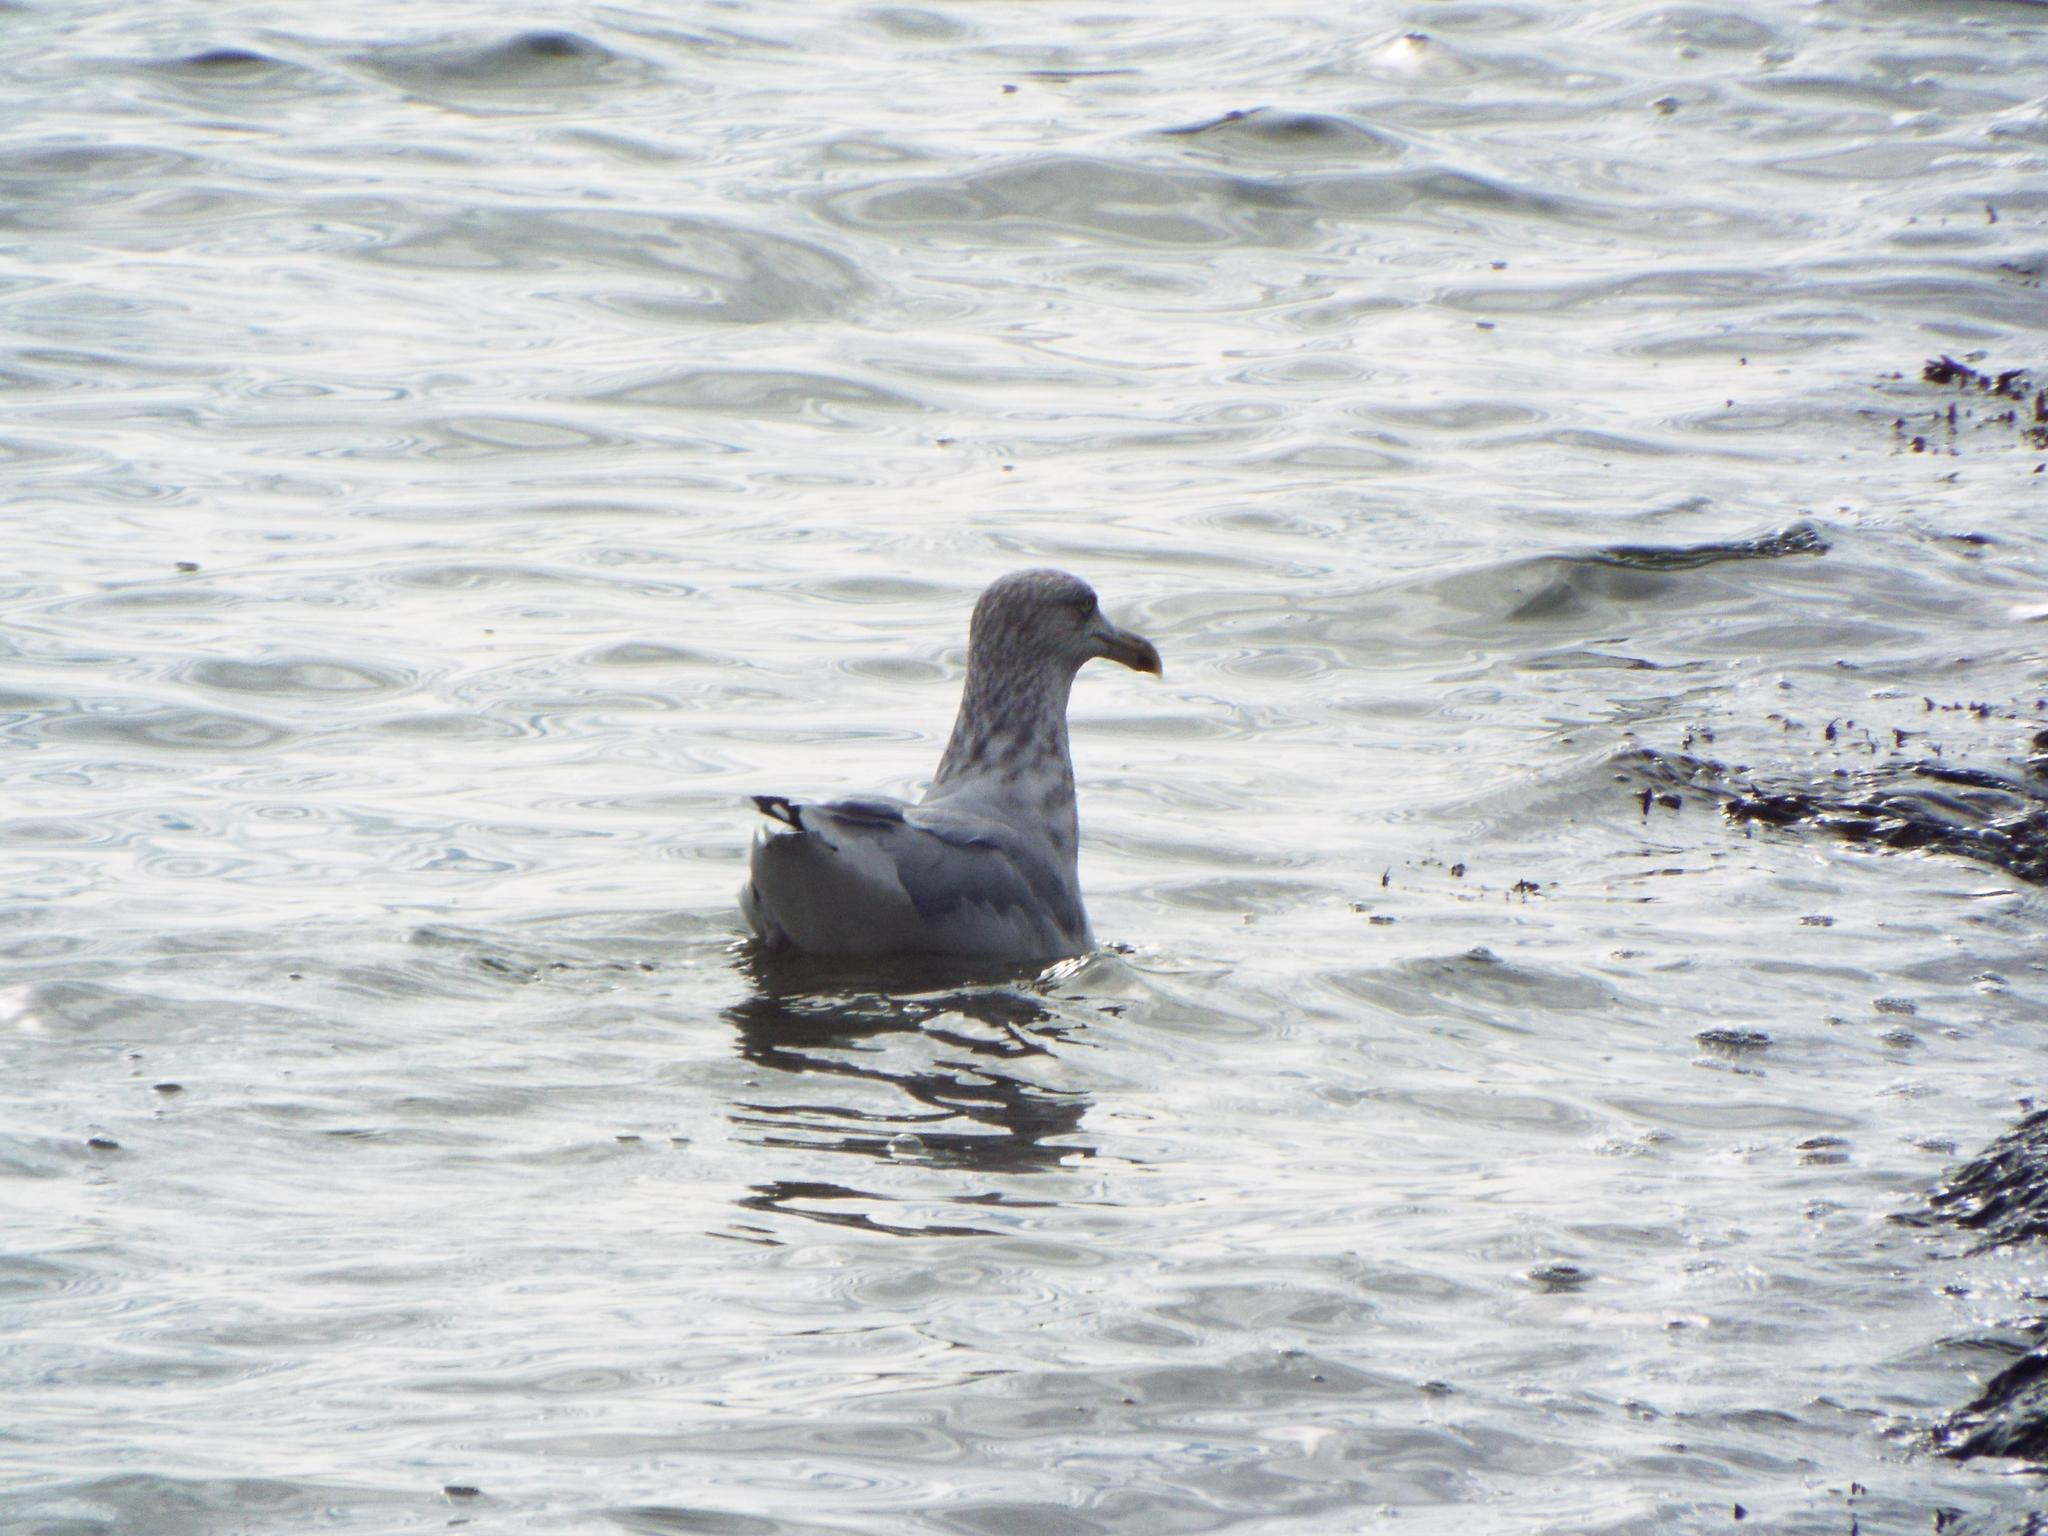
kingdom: Animalia
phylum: Chordata
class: Aves
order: Charadriiformes
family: Laridae
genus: Larus
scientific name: Larus argentatus
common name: Herring gull
